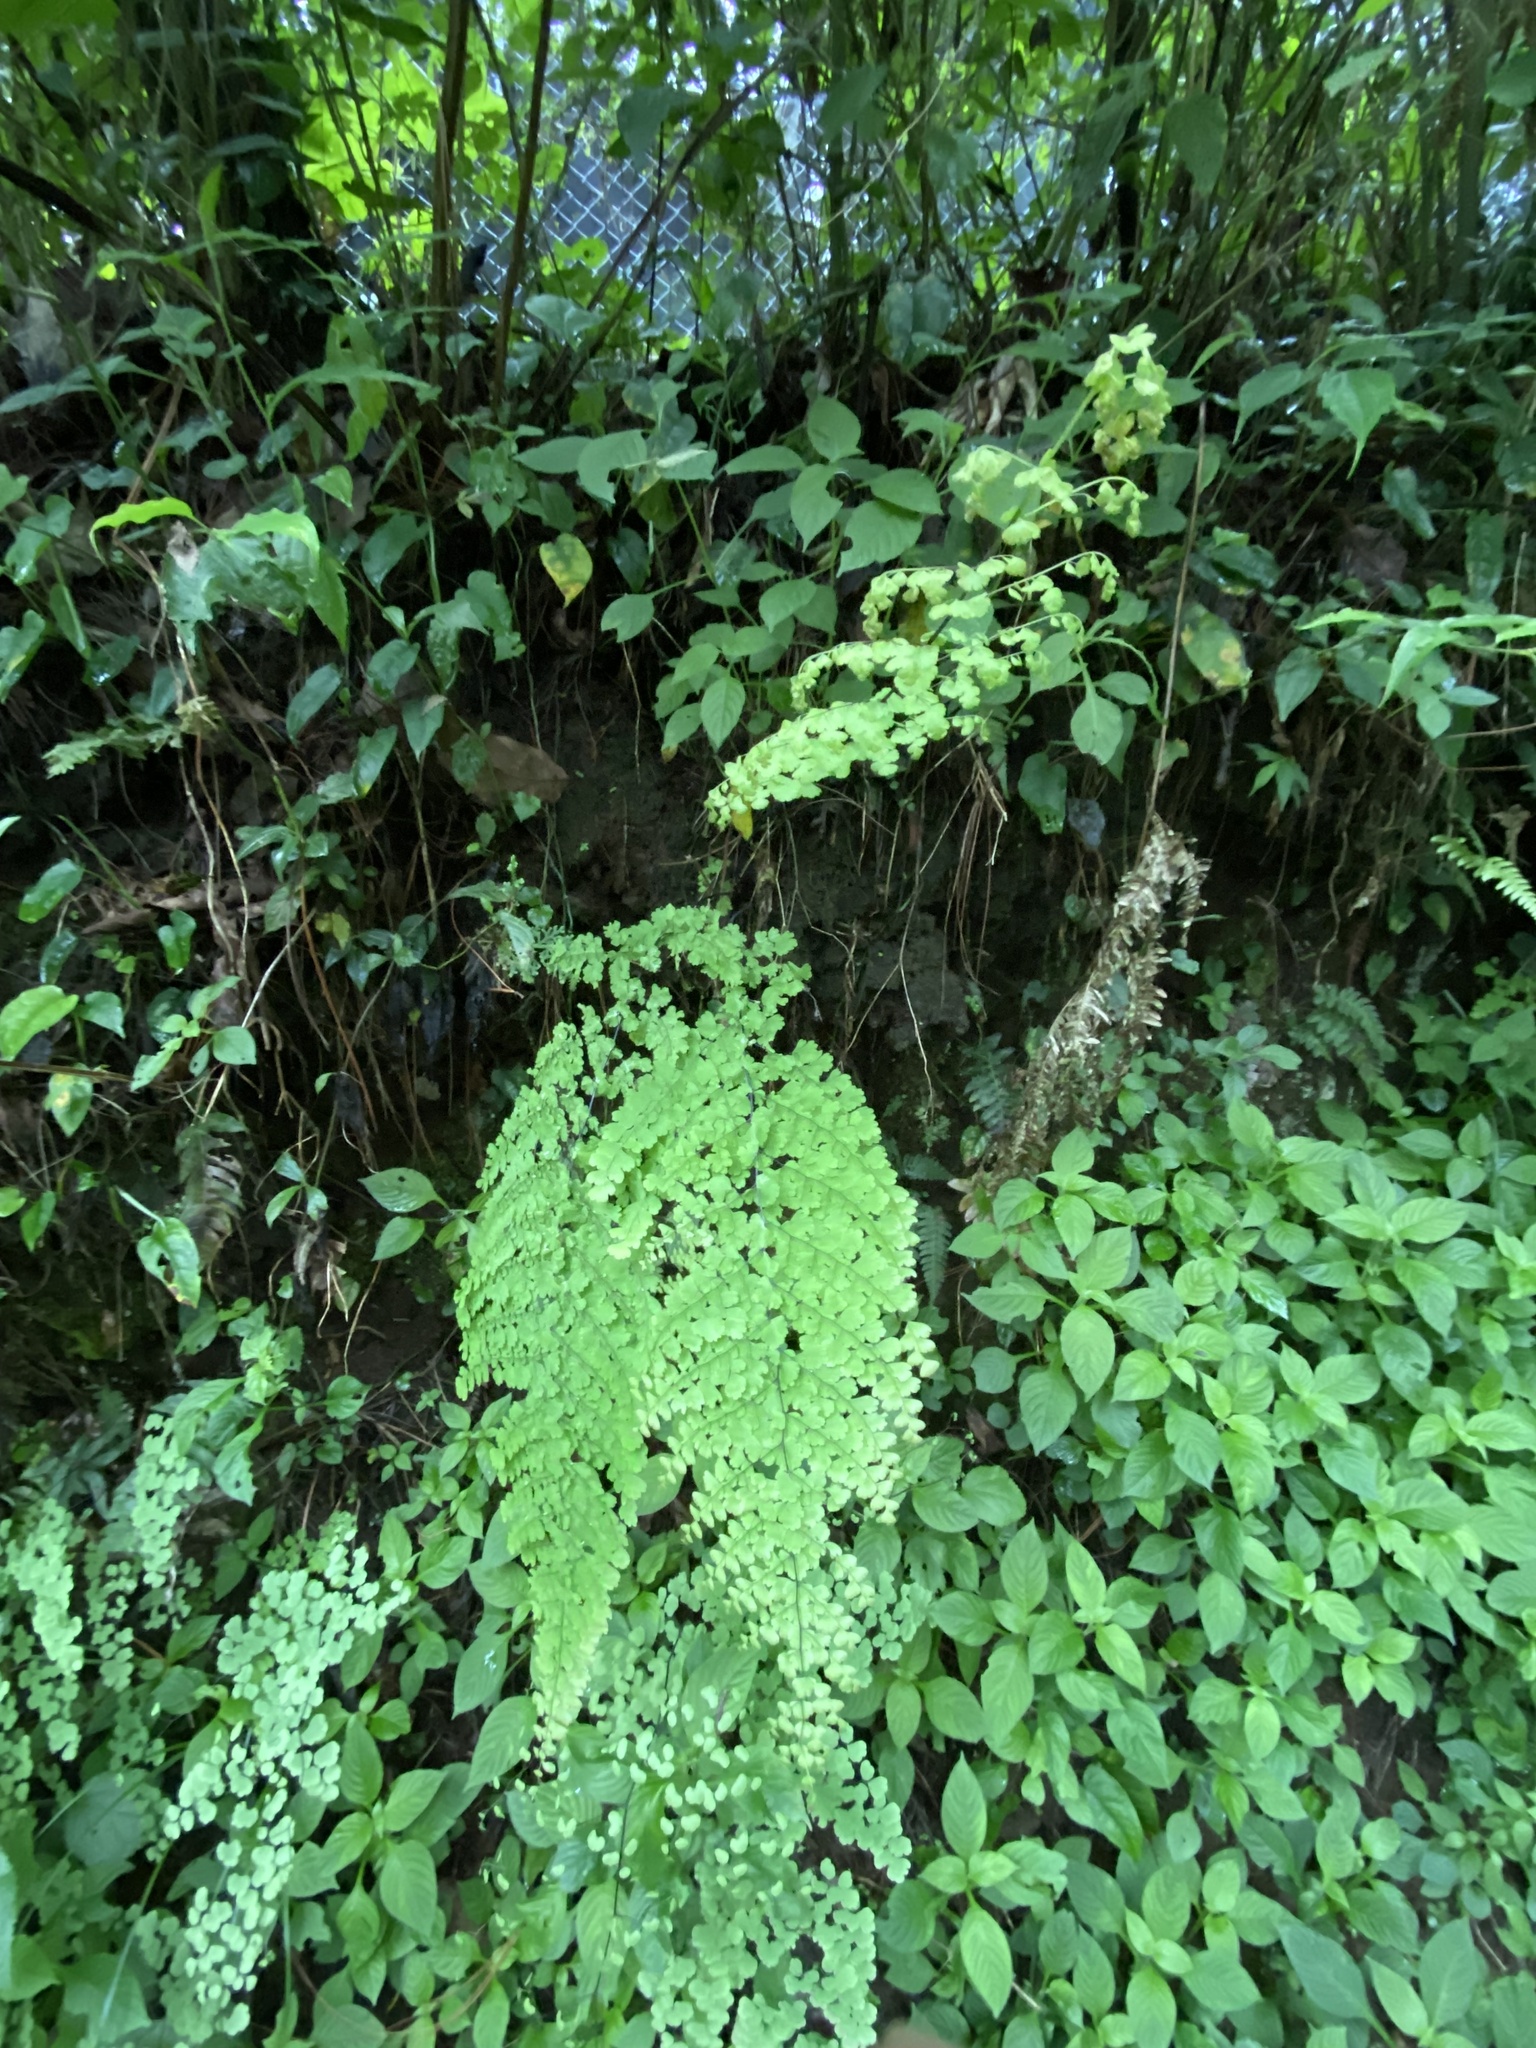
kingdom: Plantae
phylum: Tracheophyta
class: Polypodiopsida
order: Polypodiales
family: Pteridaceae
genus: Adiantum
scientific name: Adiantum concinnum
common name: Brittle maidenhair fern
